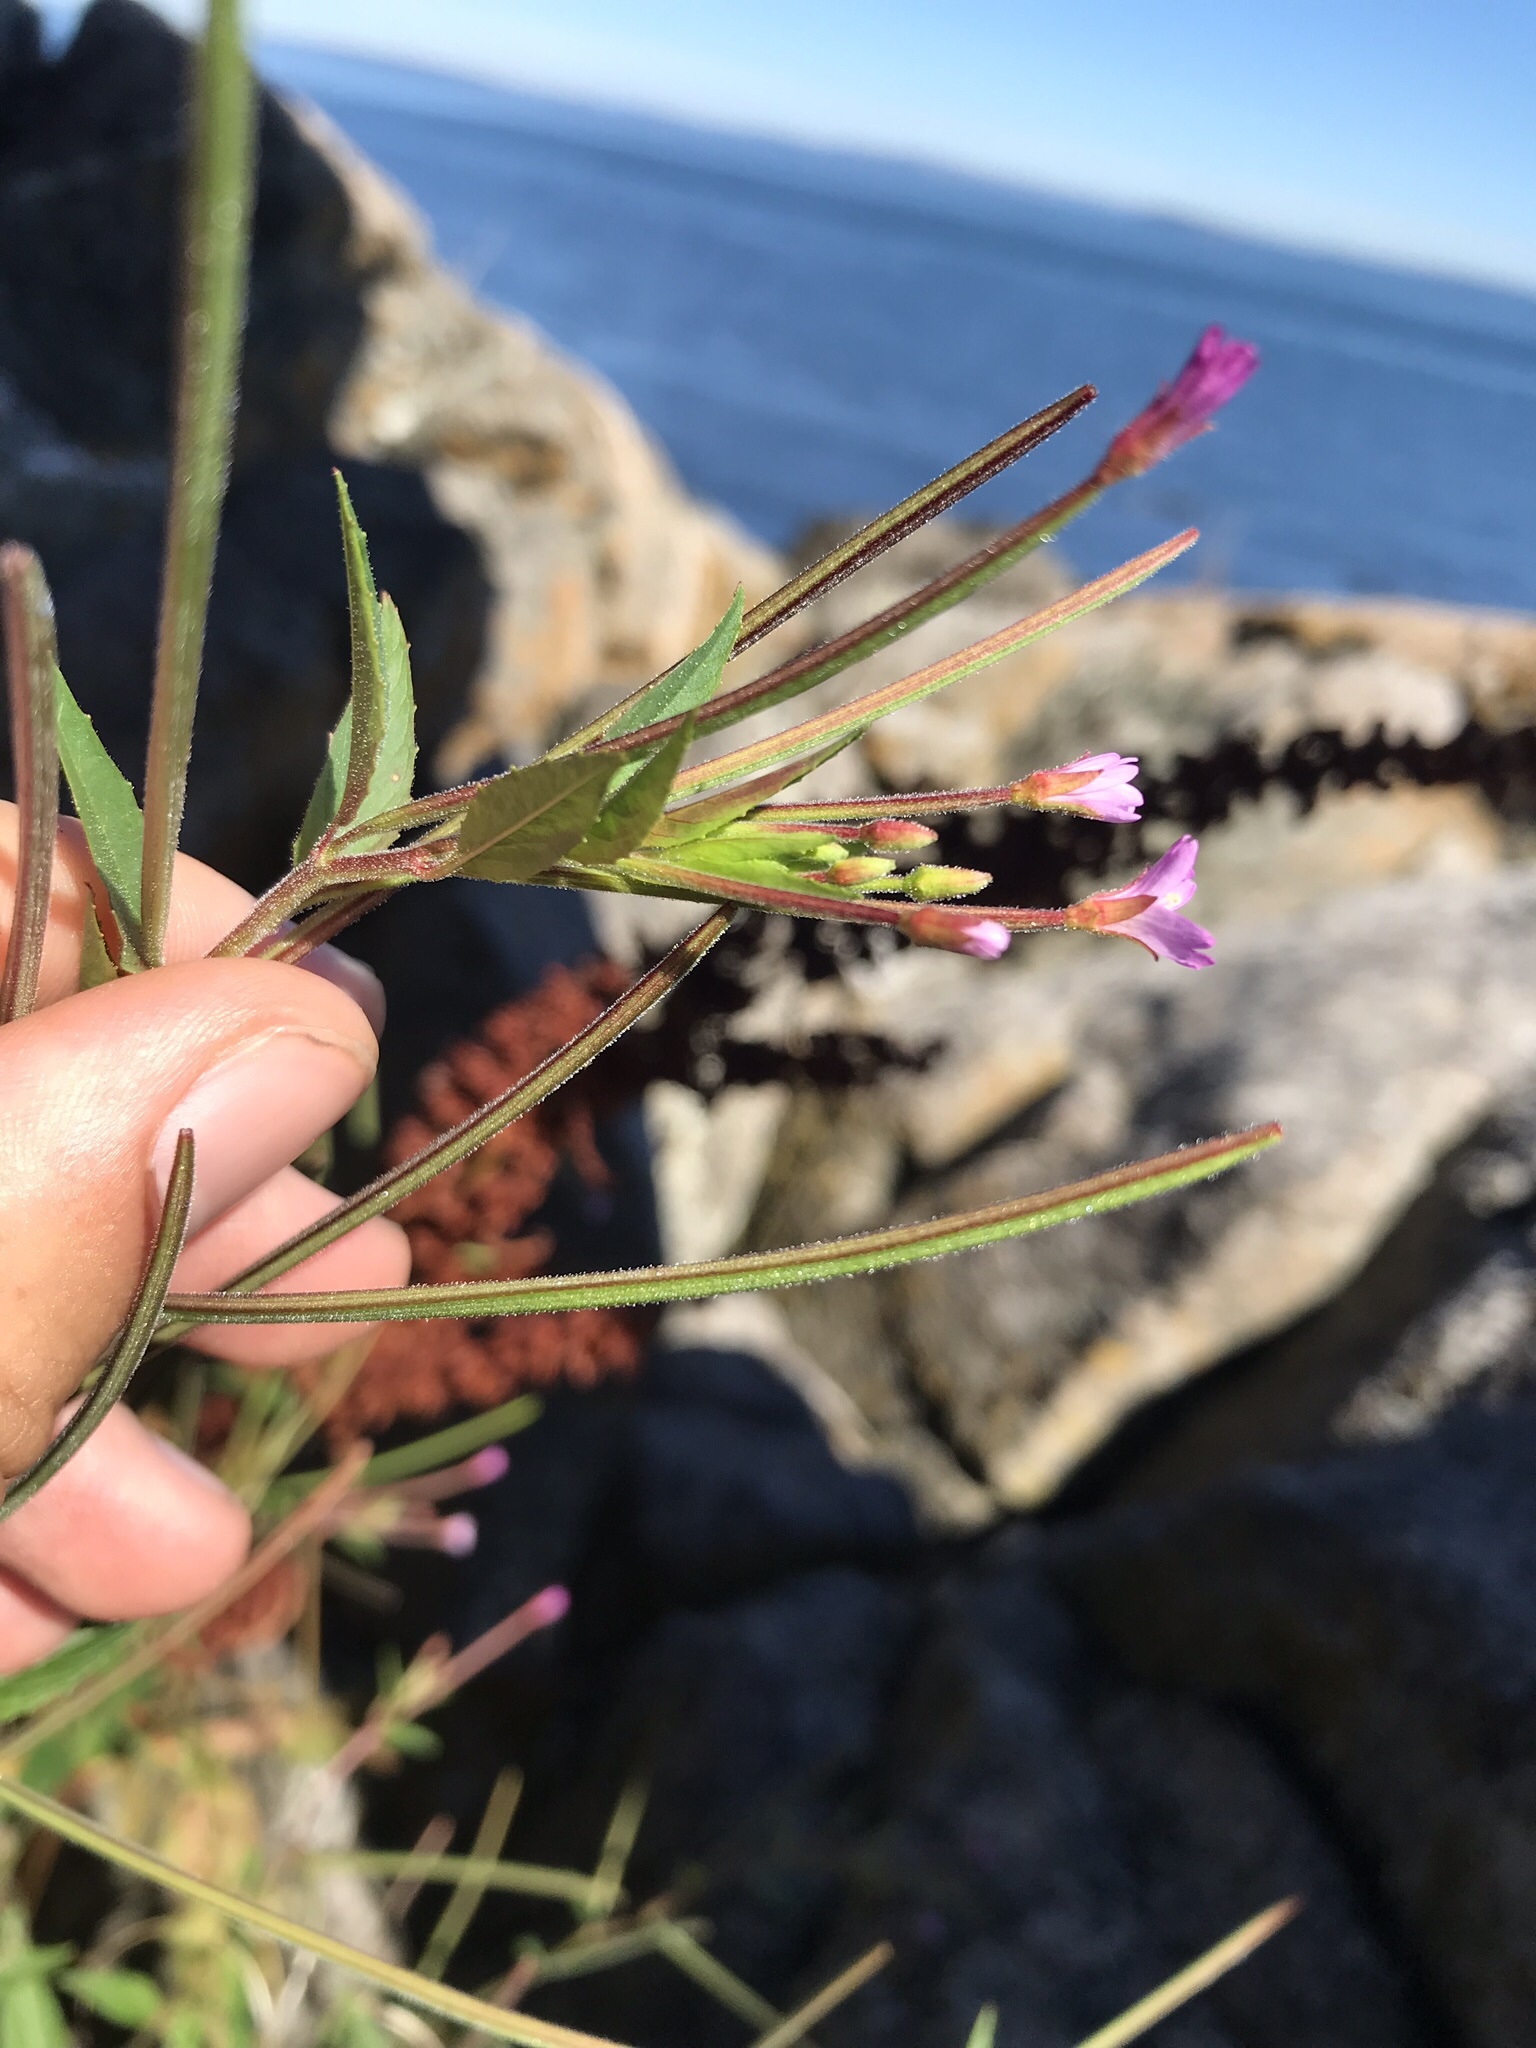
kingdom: Plantae
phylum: Tracheophyta
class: Magnoliopsida
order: Myrtales
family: Onagraceae
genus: Epilobium
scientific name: Epilobium ciliatum
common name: American willowherb
